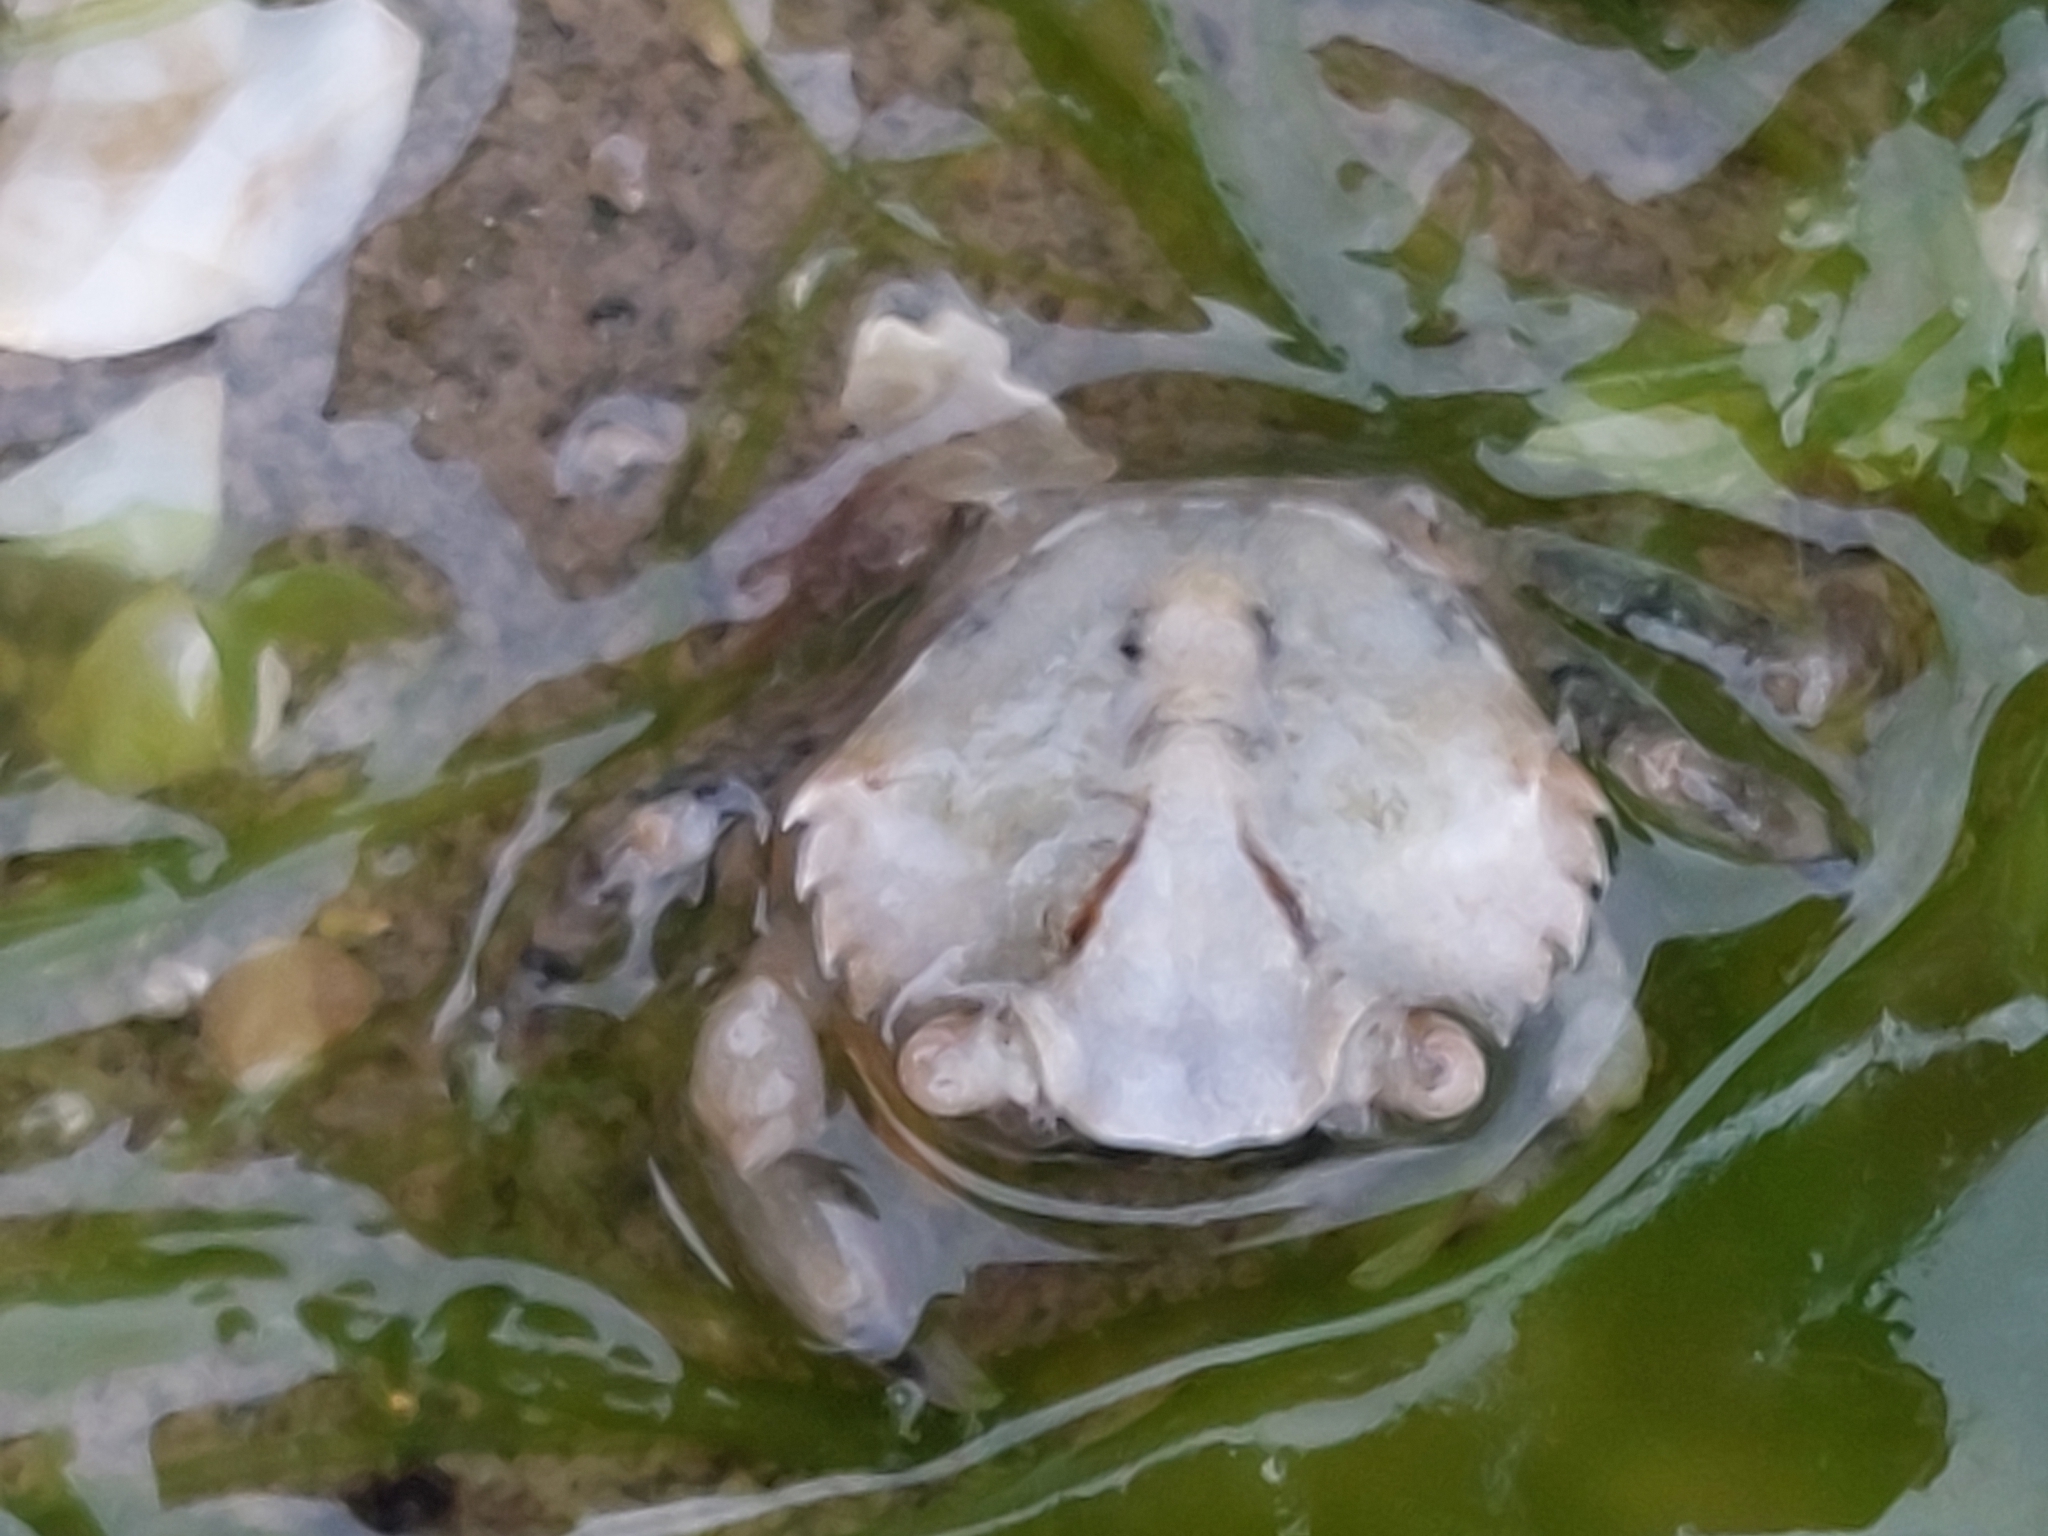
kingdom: Animalia
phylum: Arthropoda
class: Malacostraca
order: Decapoda
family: Carcinidae
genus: Carcinus
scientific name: Carcinus maenas
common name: European green crab
